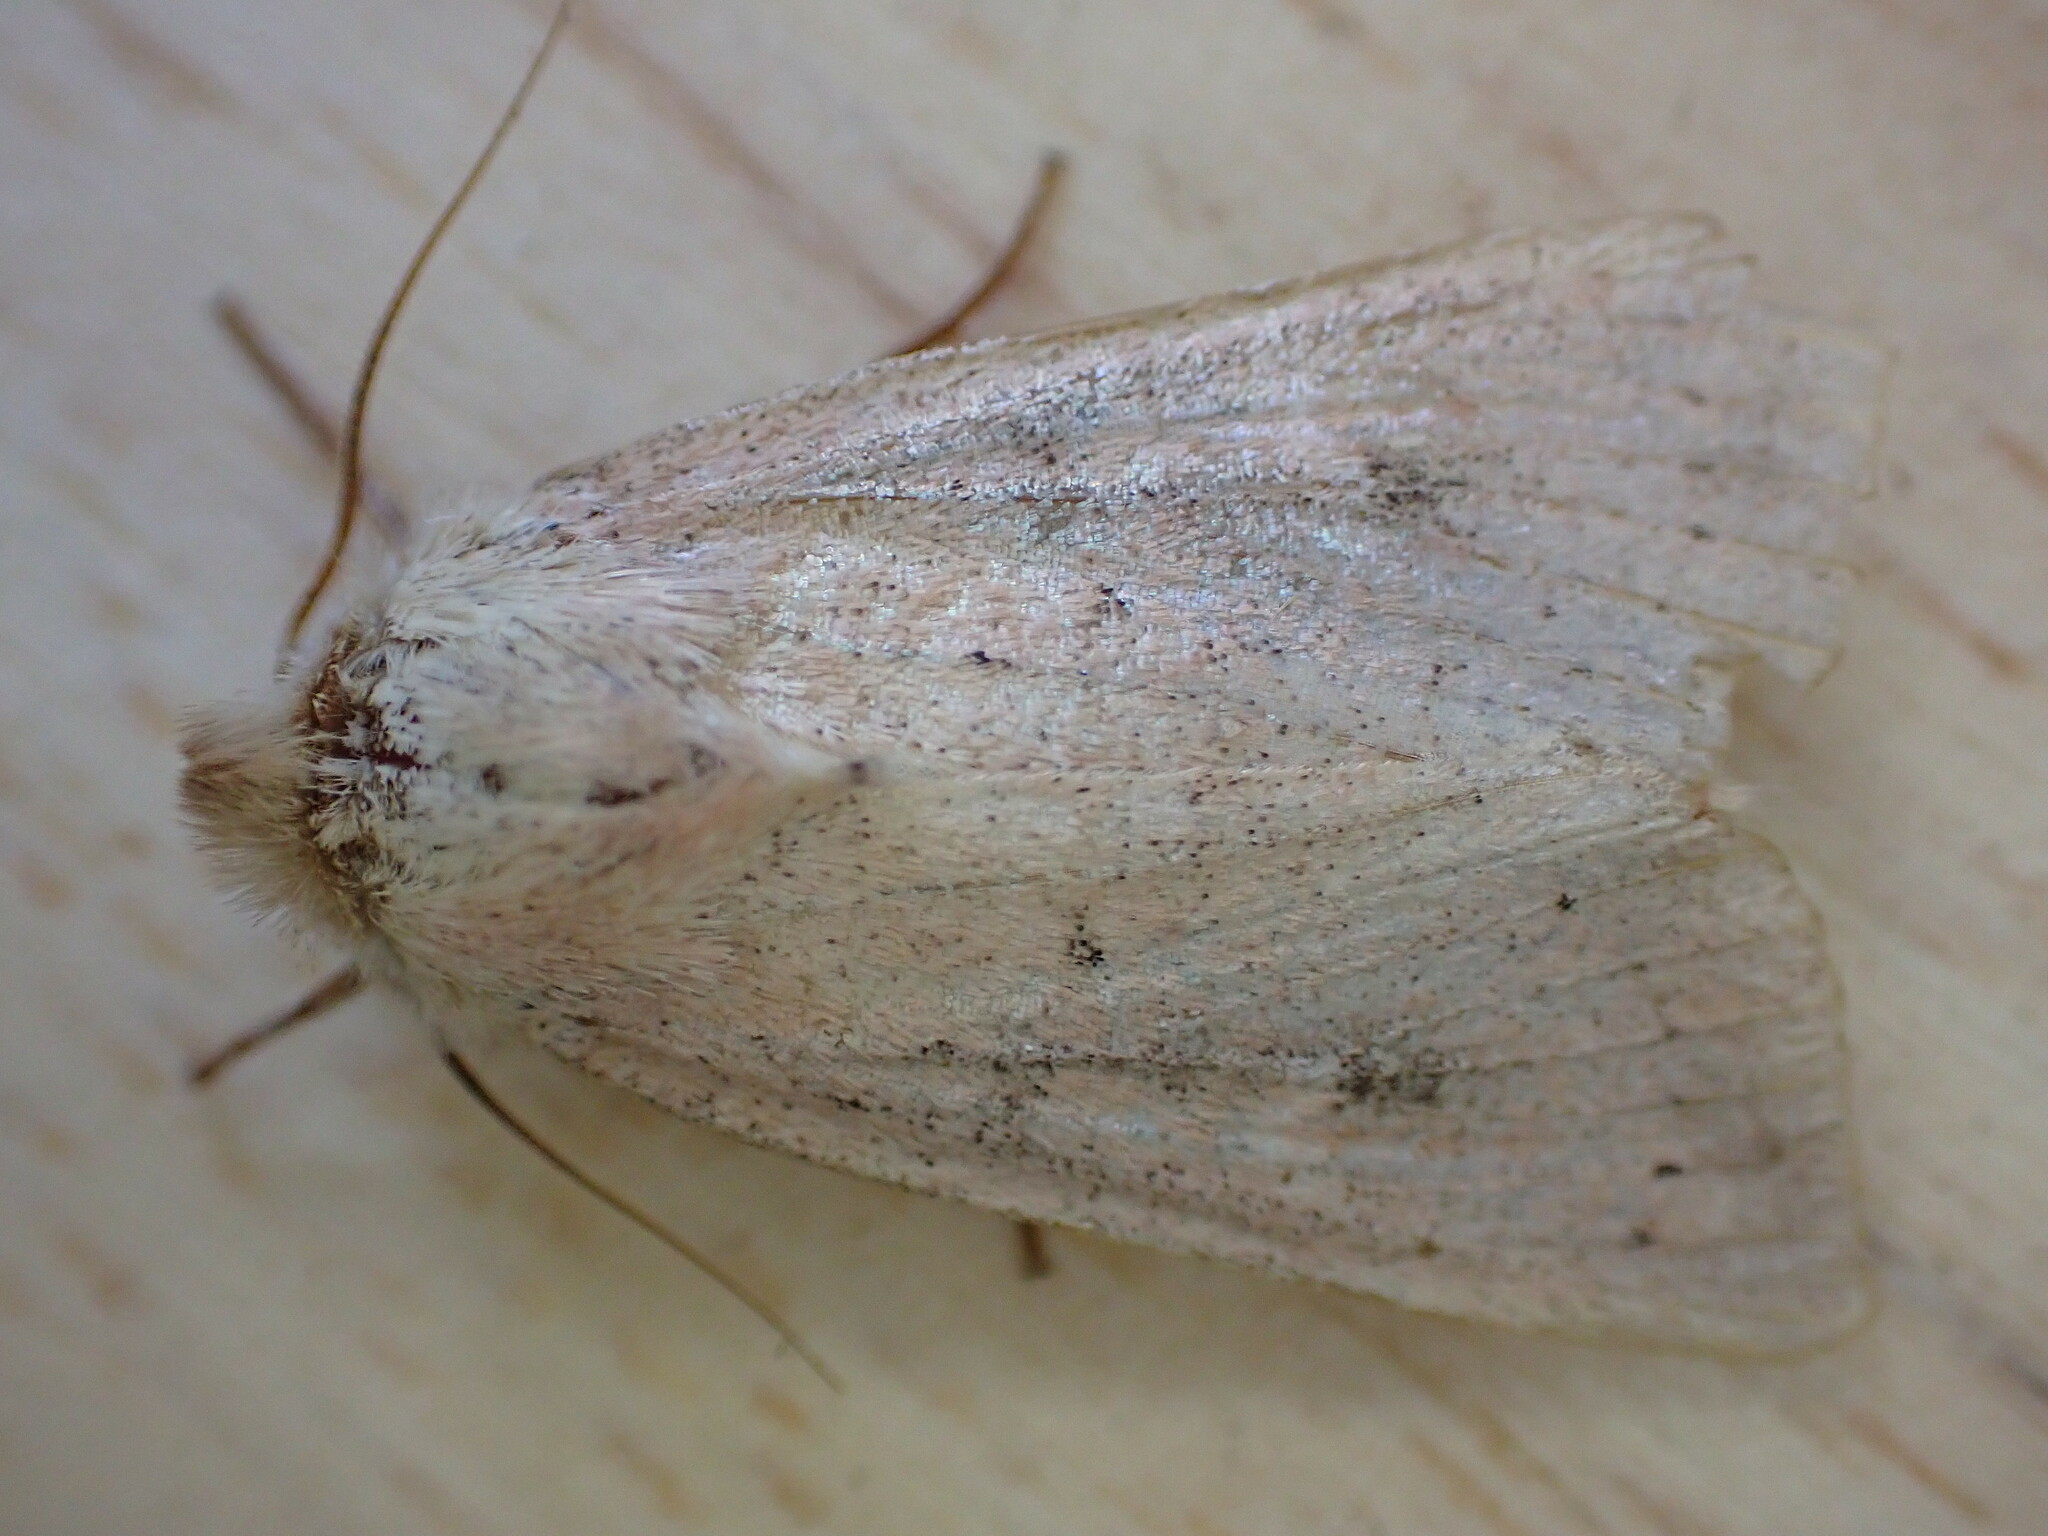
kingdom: Animalia
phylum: Arthropoda
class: Insecta
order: Lepidoptera
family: Noctuidae
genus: Mythimna
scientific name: Mythimna ferrago
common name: Clay
